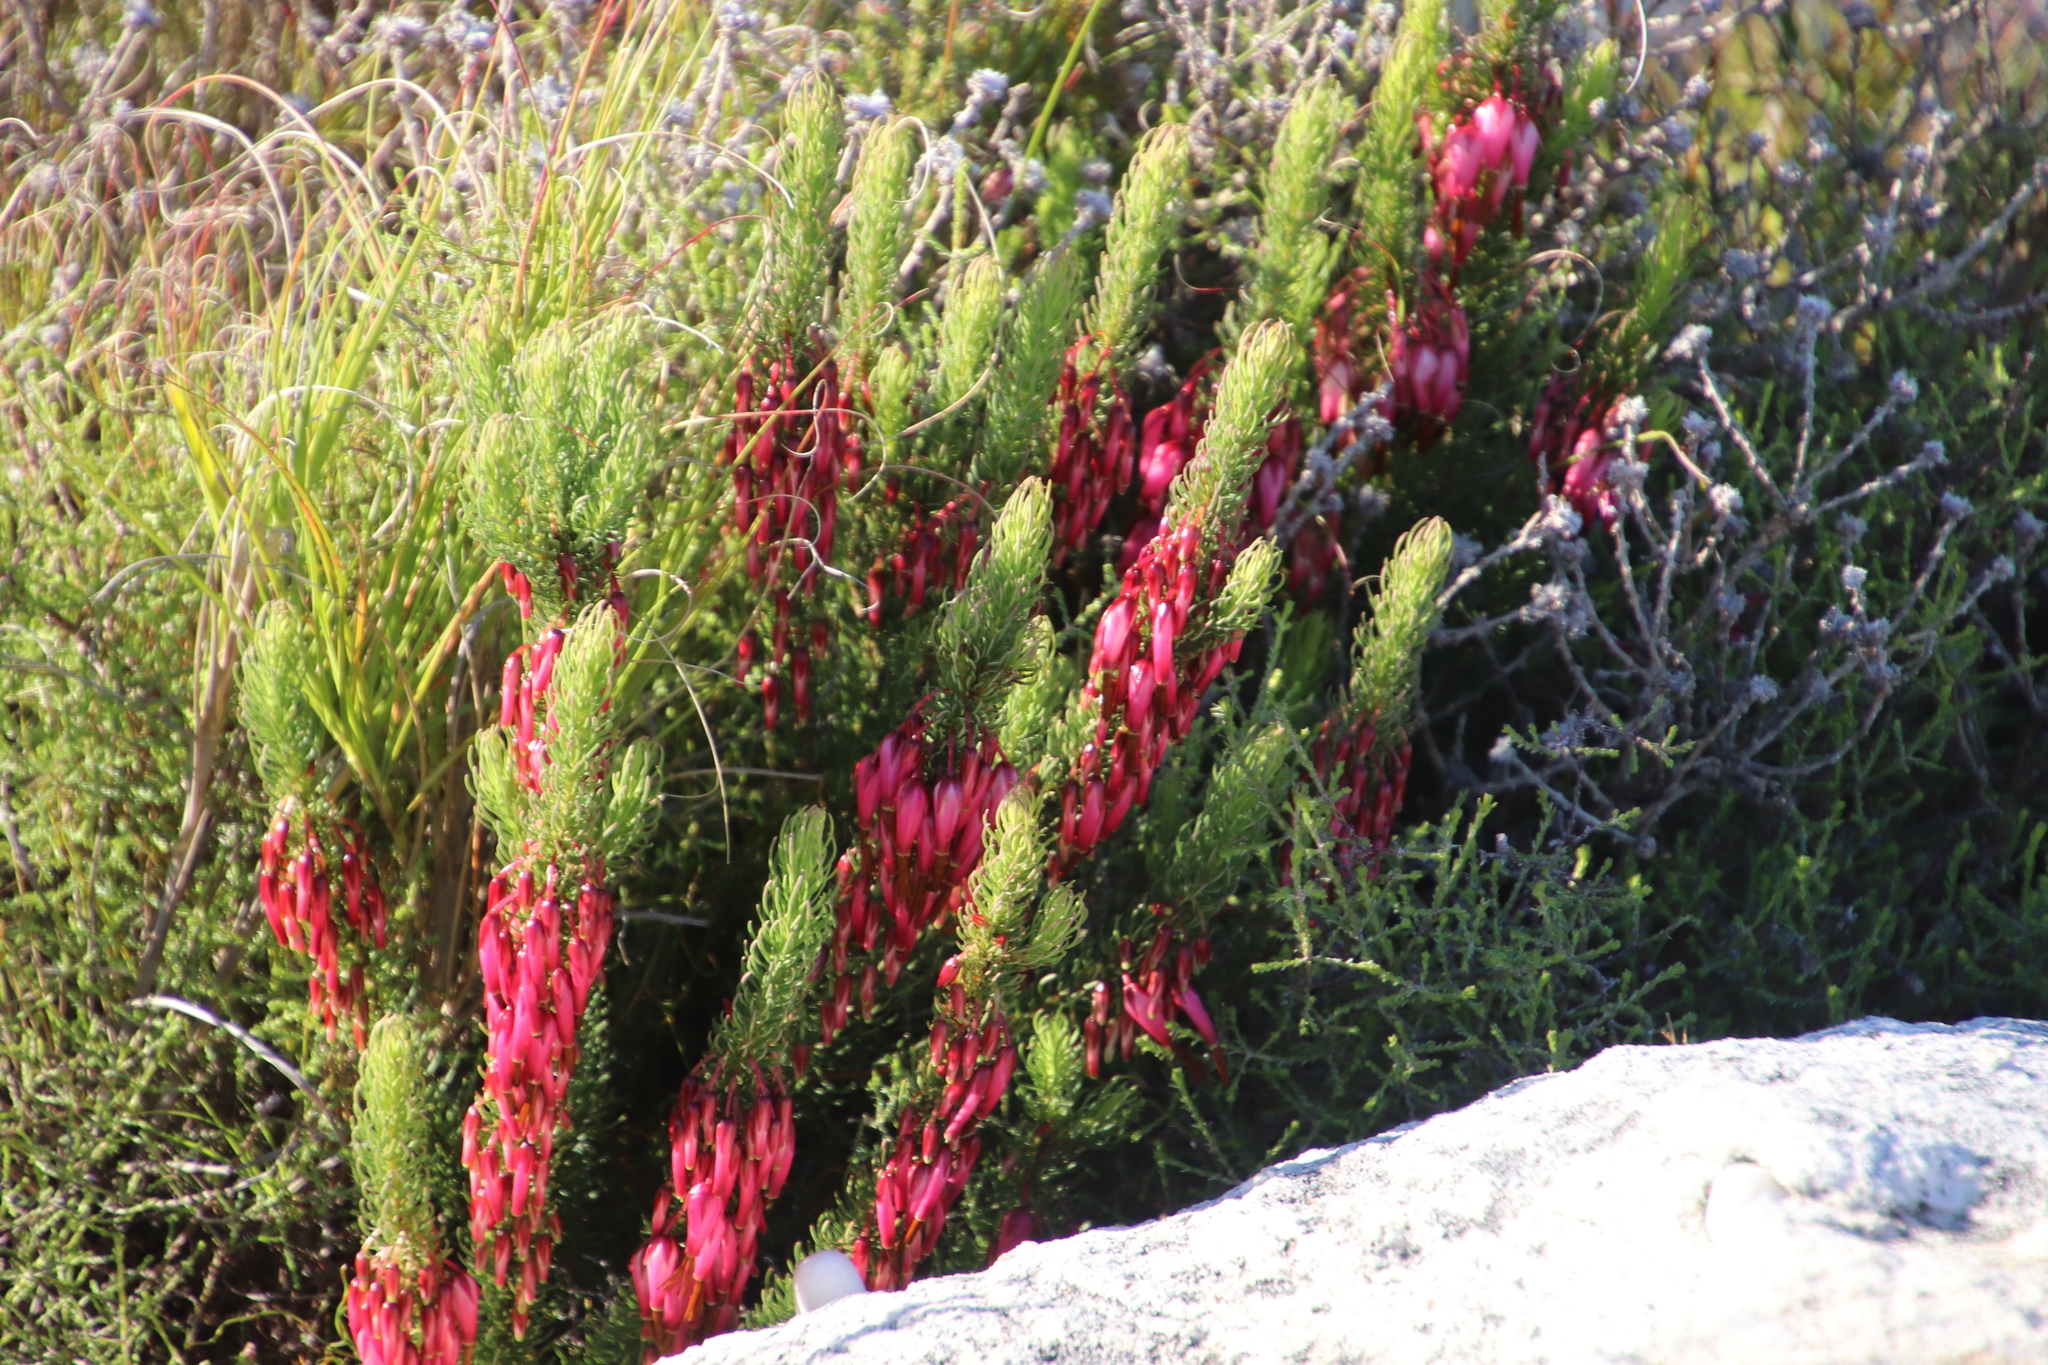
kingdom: Plantae
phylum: Tracheophyta
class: Magnoliopsida
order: Ericales
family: Ericaceae
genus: Erica
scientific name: Erica plukenetii
